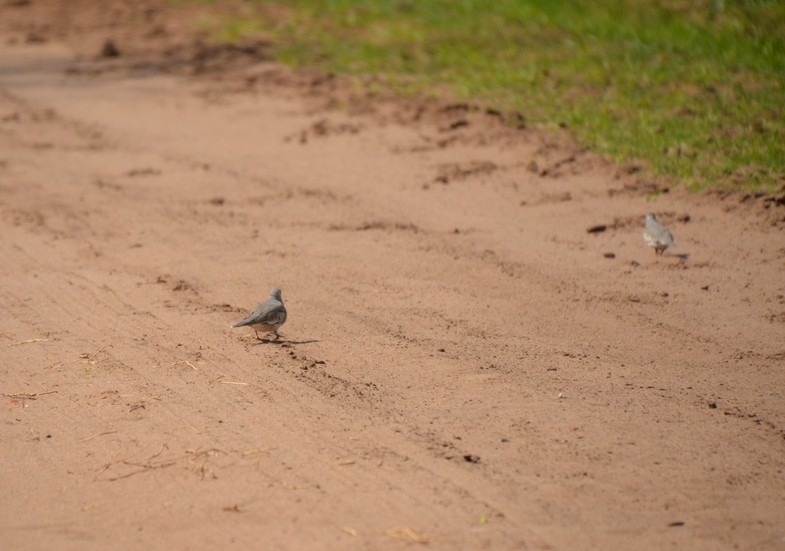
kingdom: Animalia
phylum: Chordata
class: Aves
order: Columbiformes
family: Columbidae
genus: Columbina
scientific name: Columbina picui
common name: Picui ground dove
